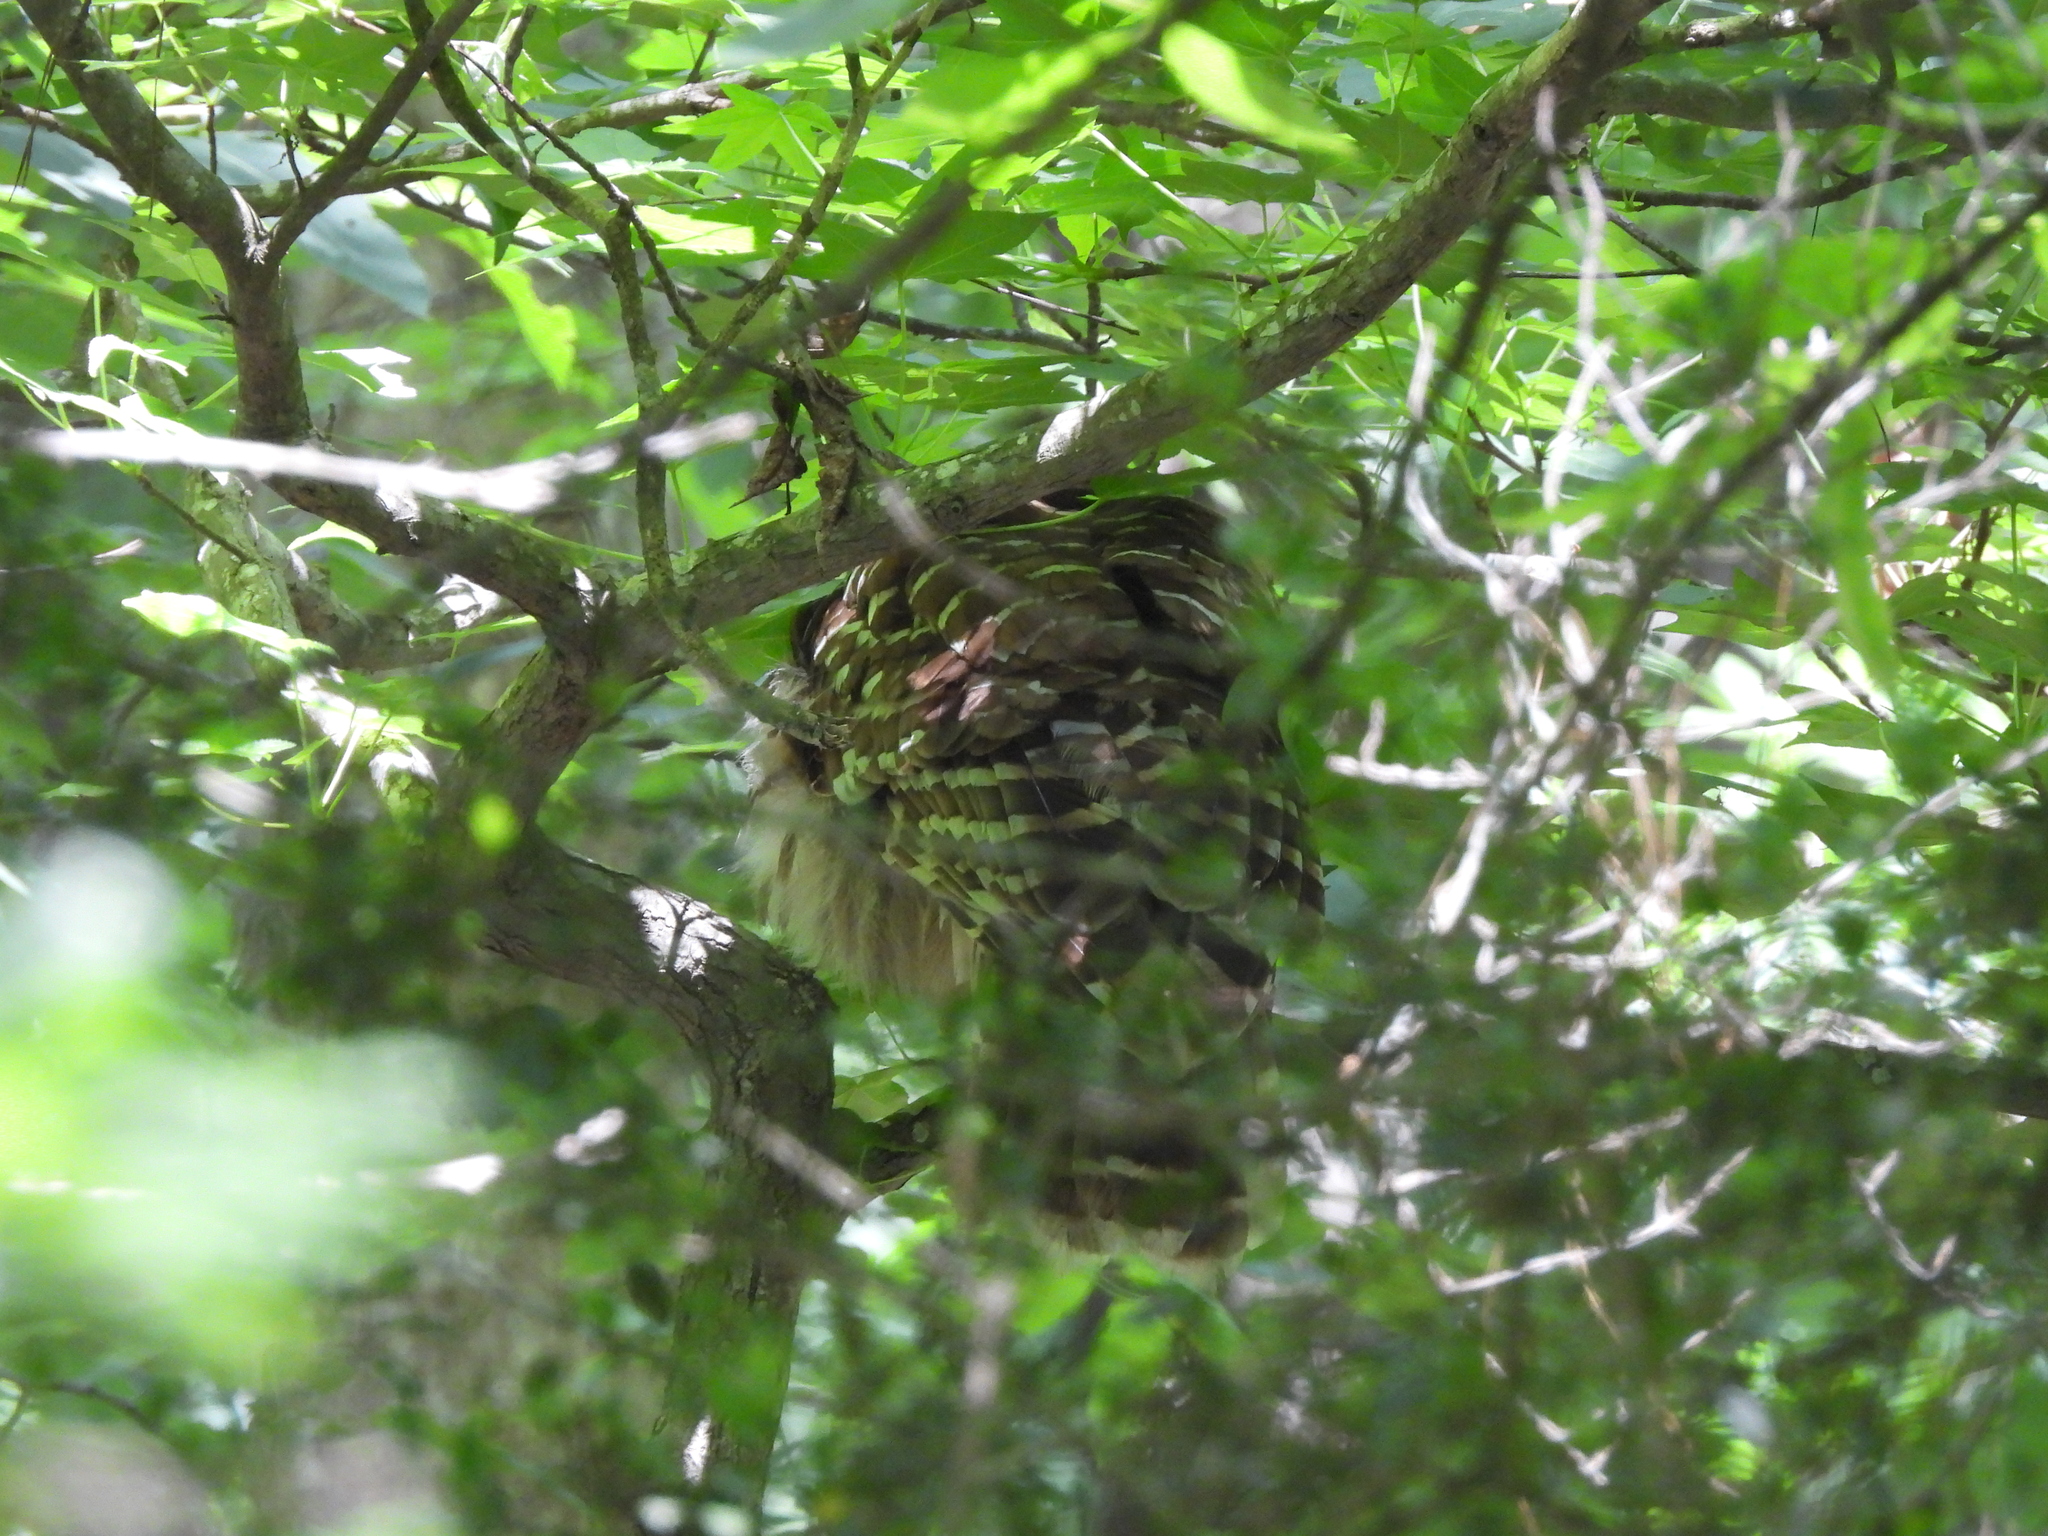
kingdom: Animalia
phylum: Chordata
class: Aves
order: Strigiformes
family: Strigidae
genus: Strix
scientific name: Strix varia
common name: Barred owl
